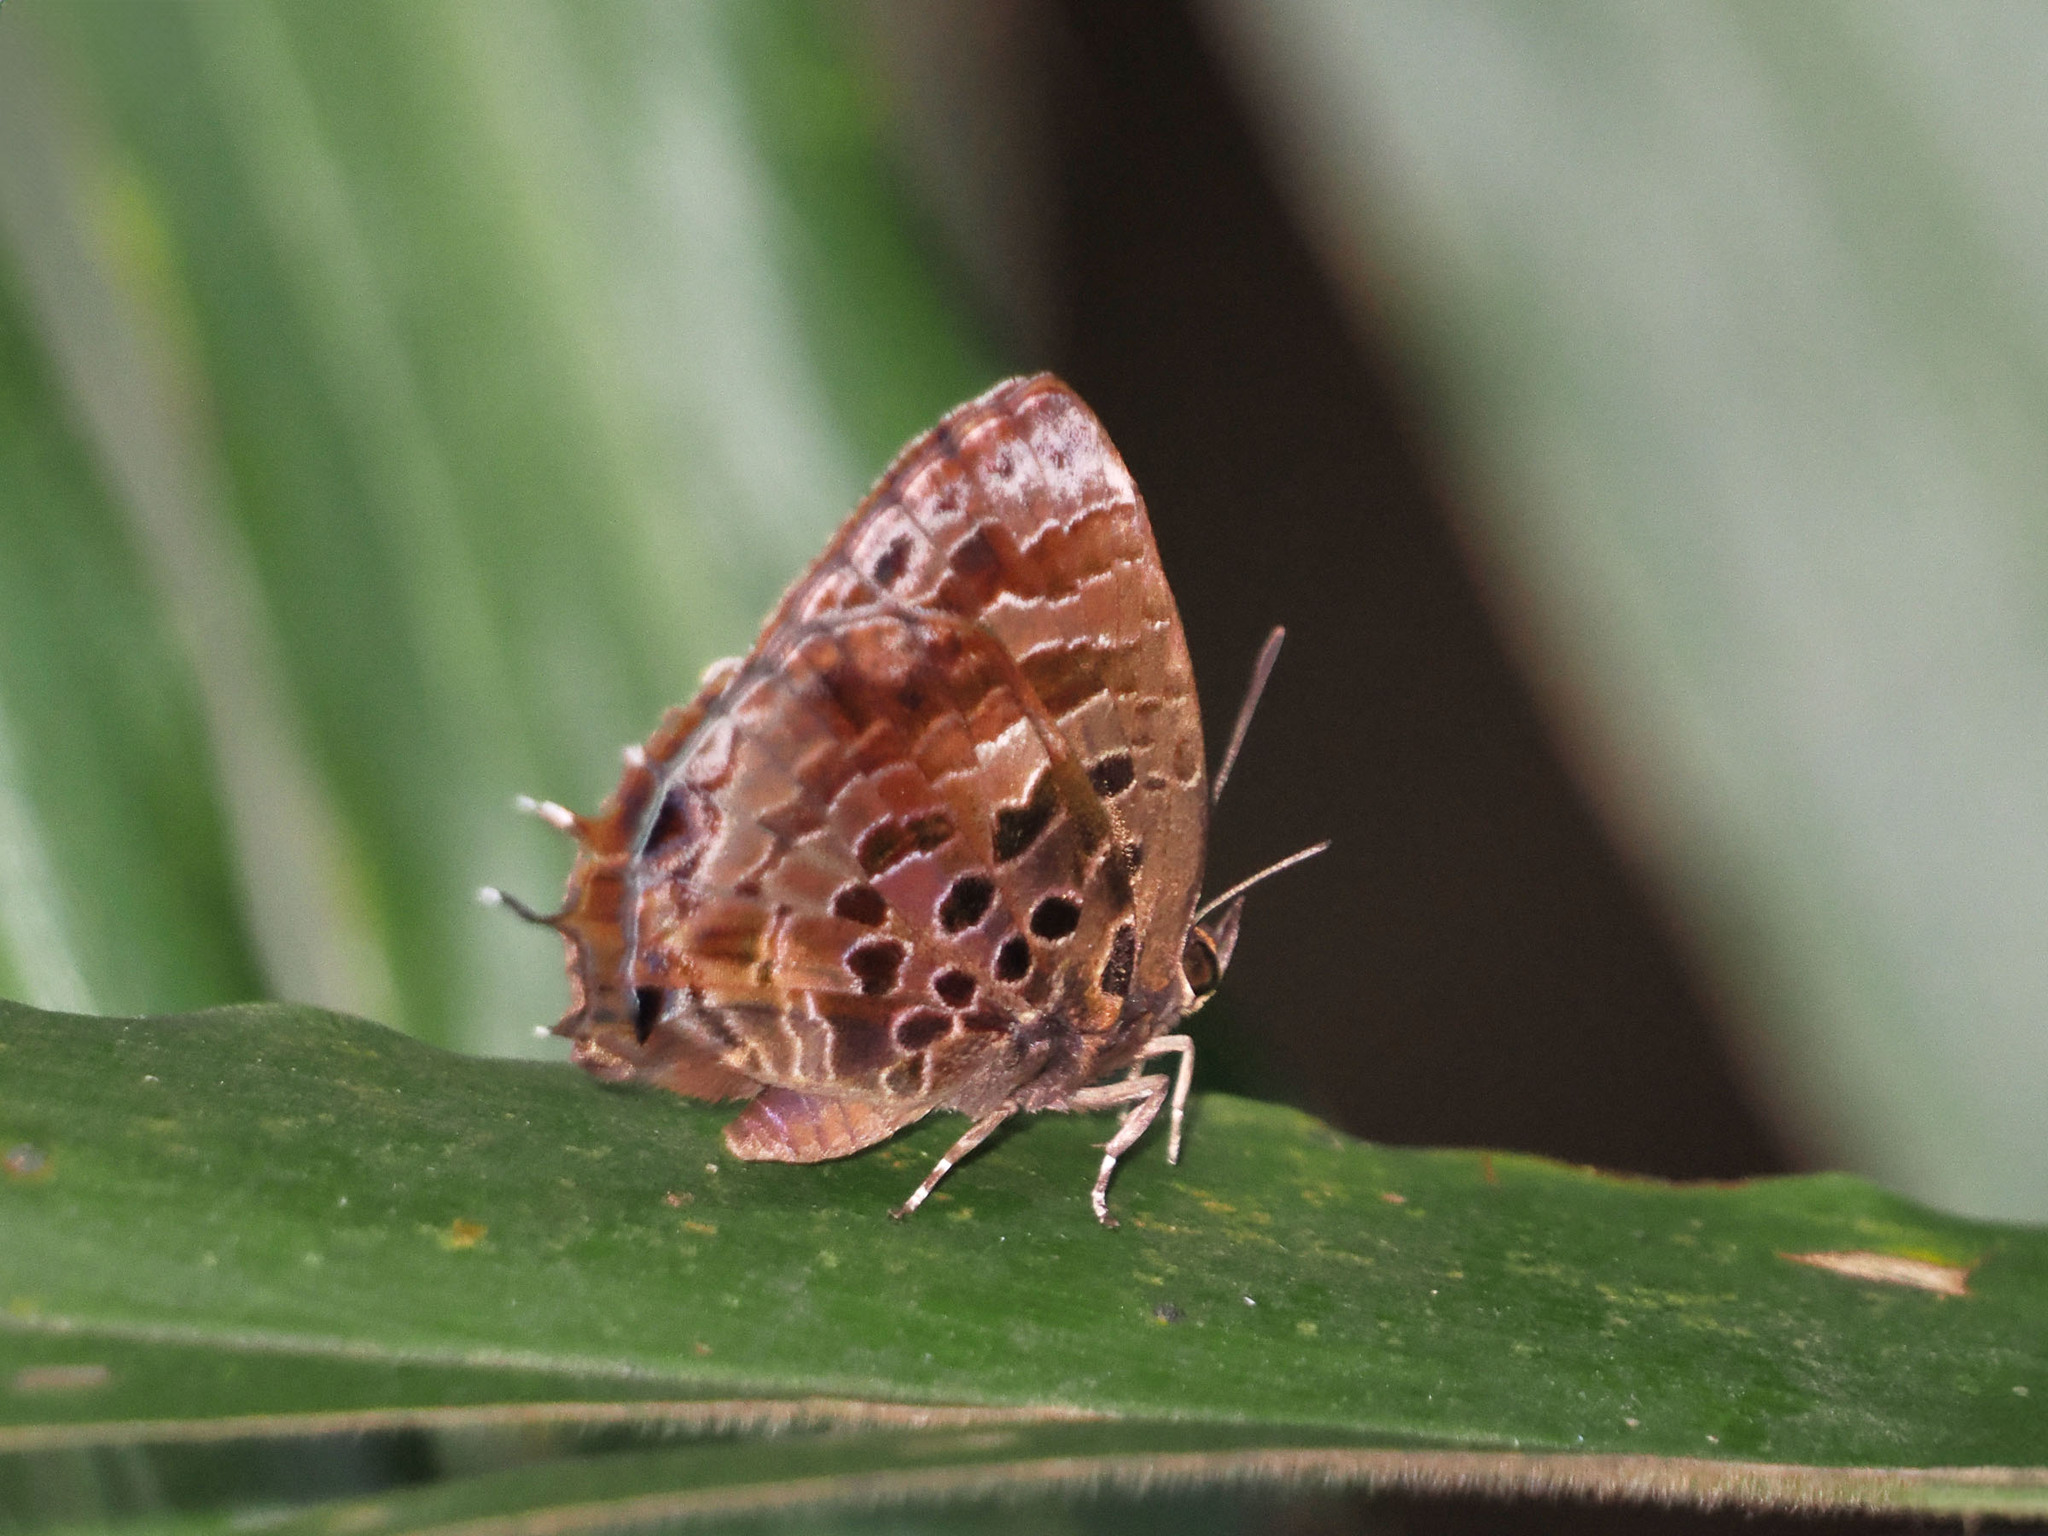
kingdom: Animalia
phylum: Arthropoda
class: Insecta
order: Lepidoptera
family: Lycaenidae
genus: Arhopala
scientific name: Arhopala abseus
